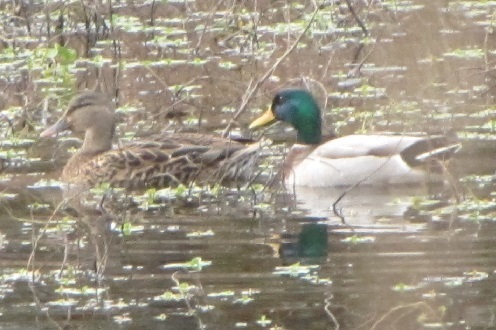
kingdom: Animalia
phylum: Chordata
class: Aves
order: Anseriformes
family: Anatidae
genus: Anas
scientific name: Anas platyrhynchos
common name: Mallard
